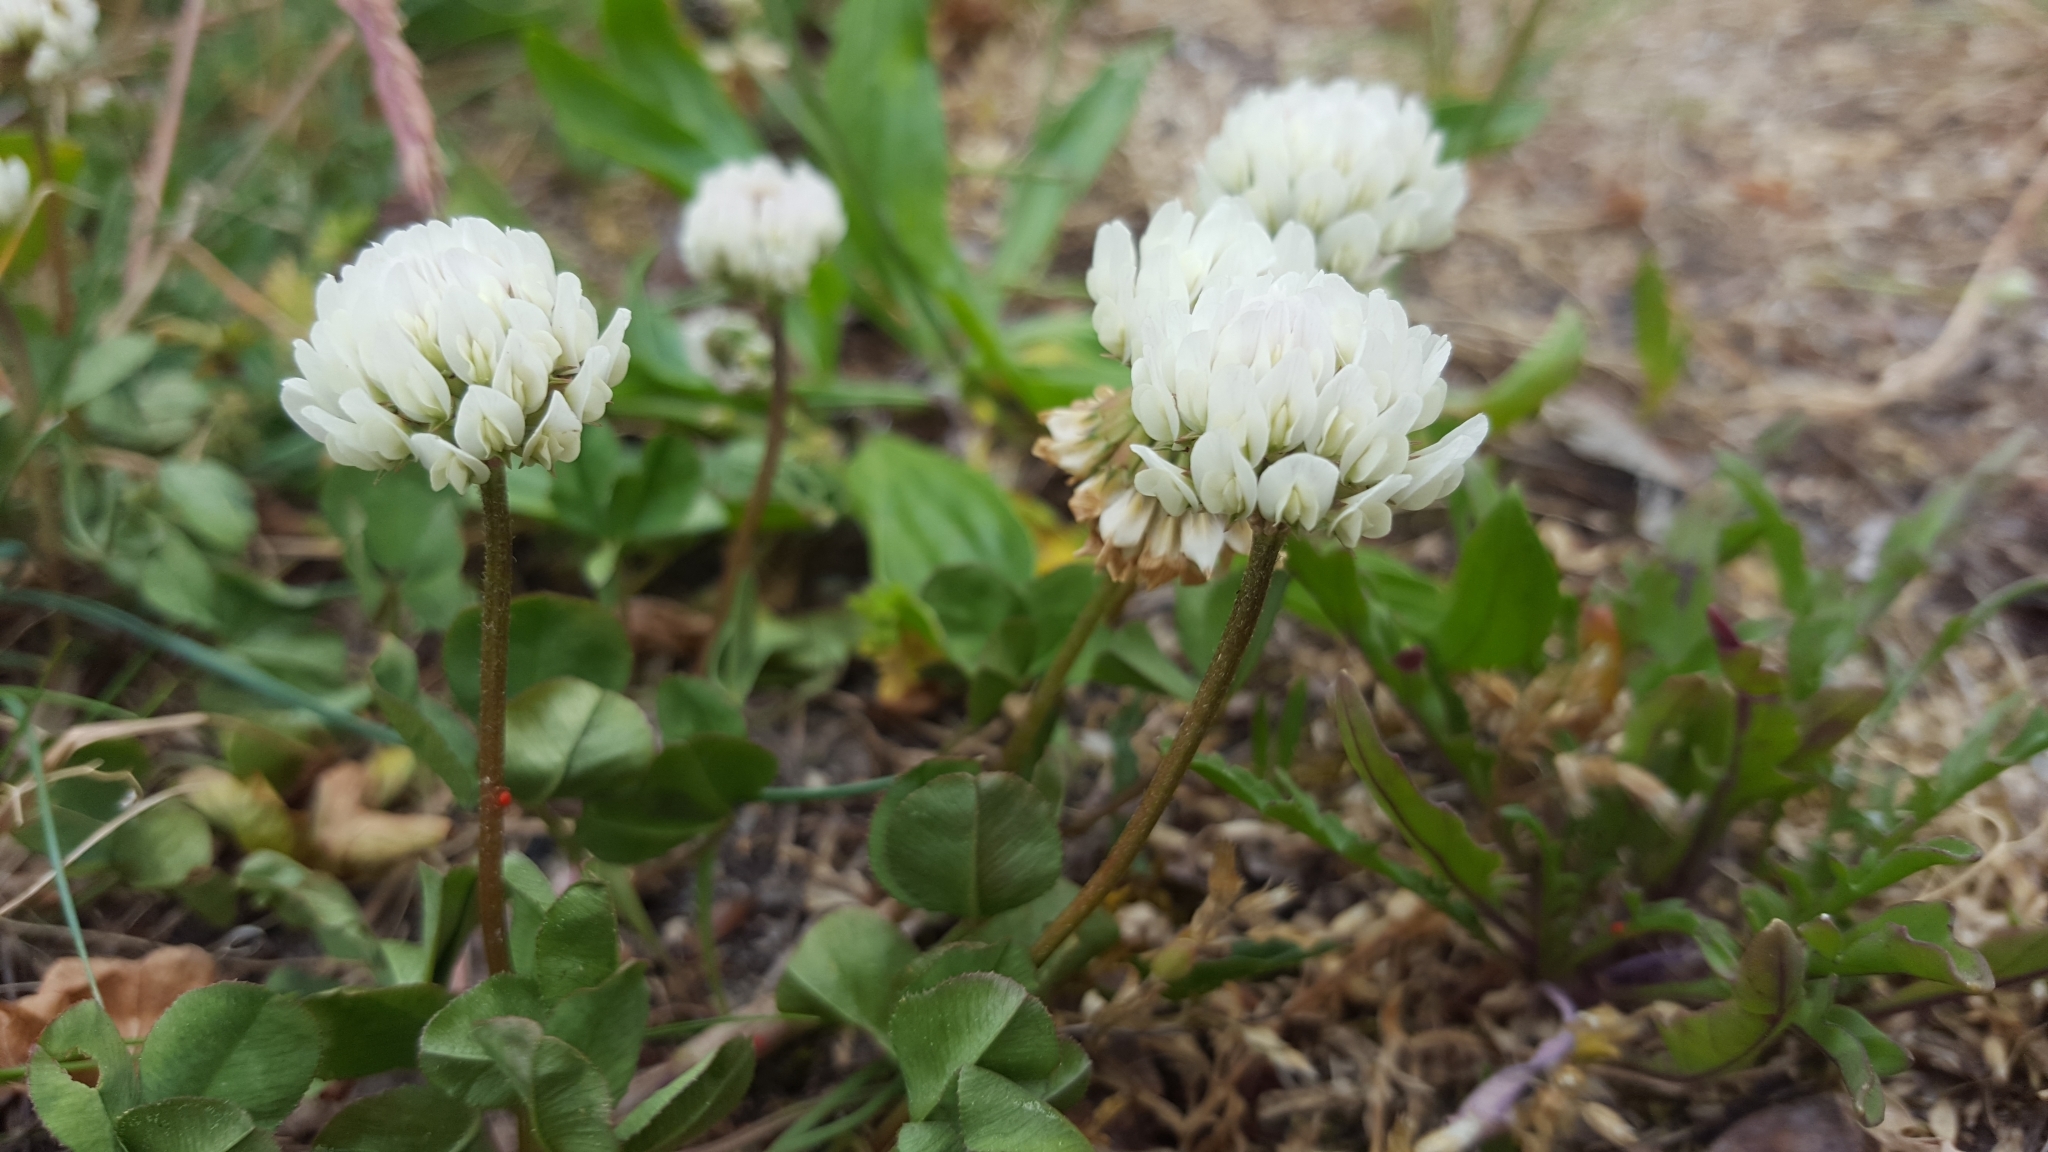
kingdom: Plantae
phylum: Tracheophyta
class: Magnoliopsida
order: Fabales
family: Fabaceae
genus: Trifolium
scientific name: Trifolium repens
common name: White clover
